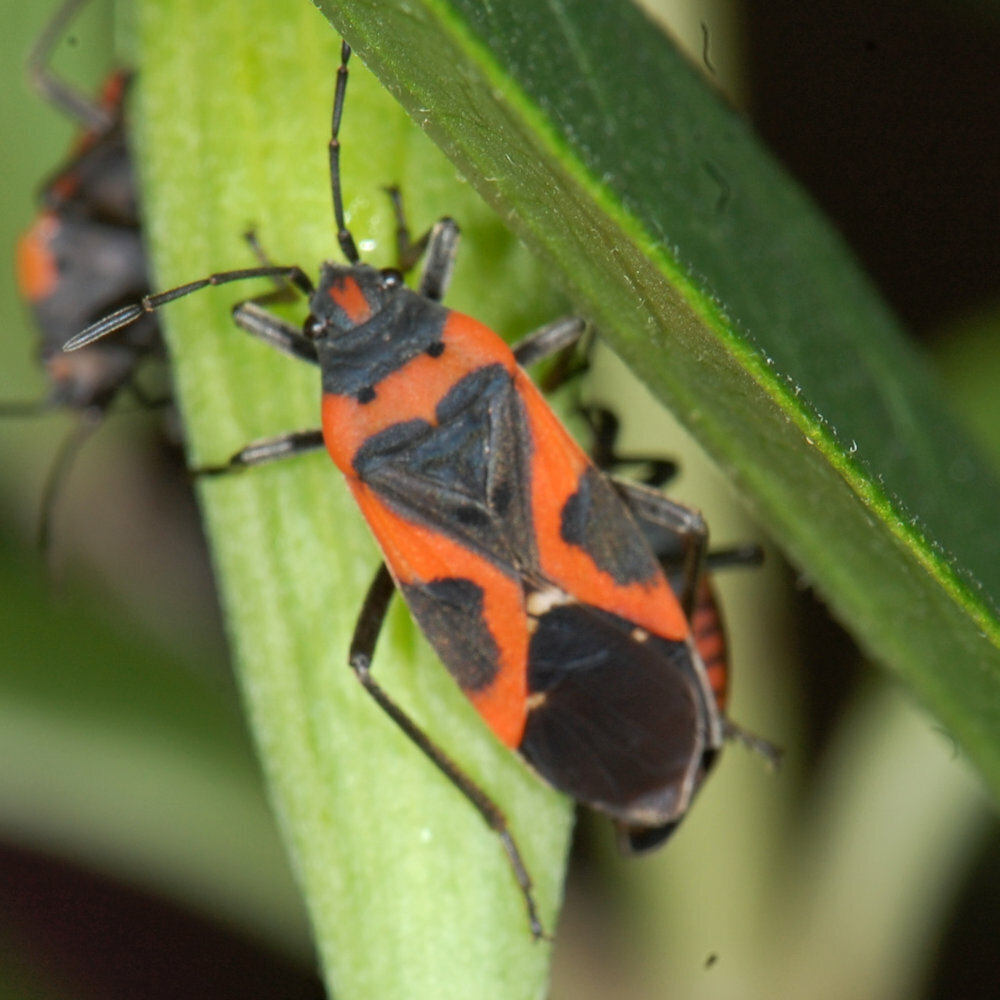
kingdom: Animalia
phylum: Arthropoda
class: Insecta
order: Hemiptera
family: Lygaeidae
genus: Lygaeus
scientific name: Lygaeus kalmii
